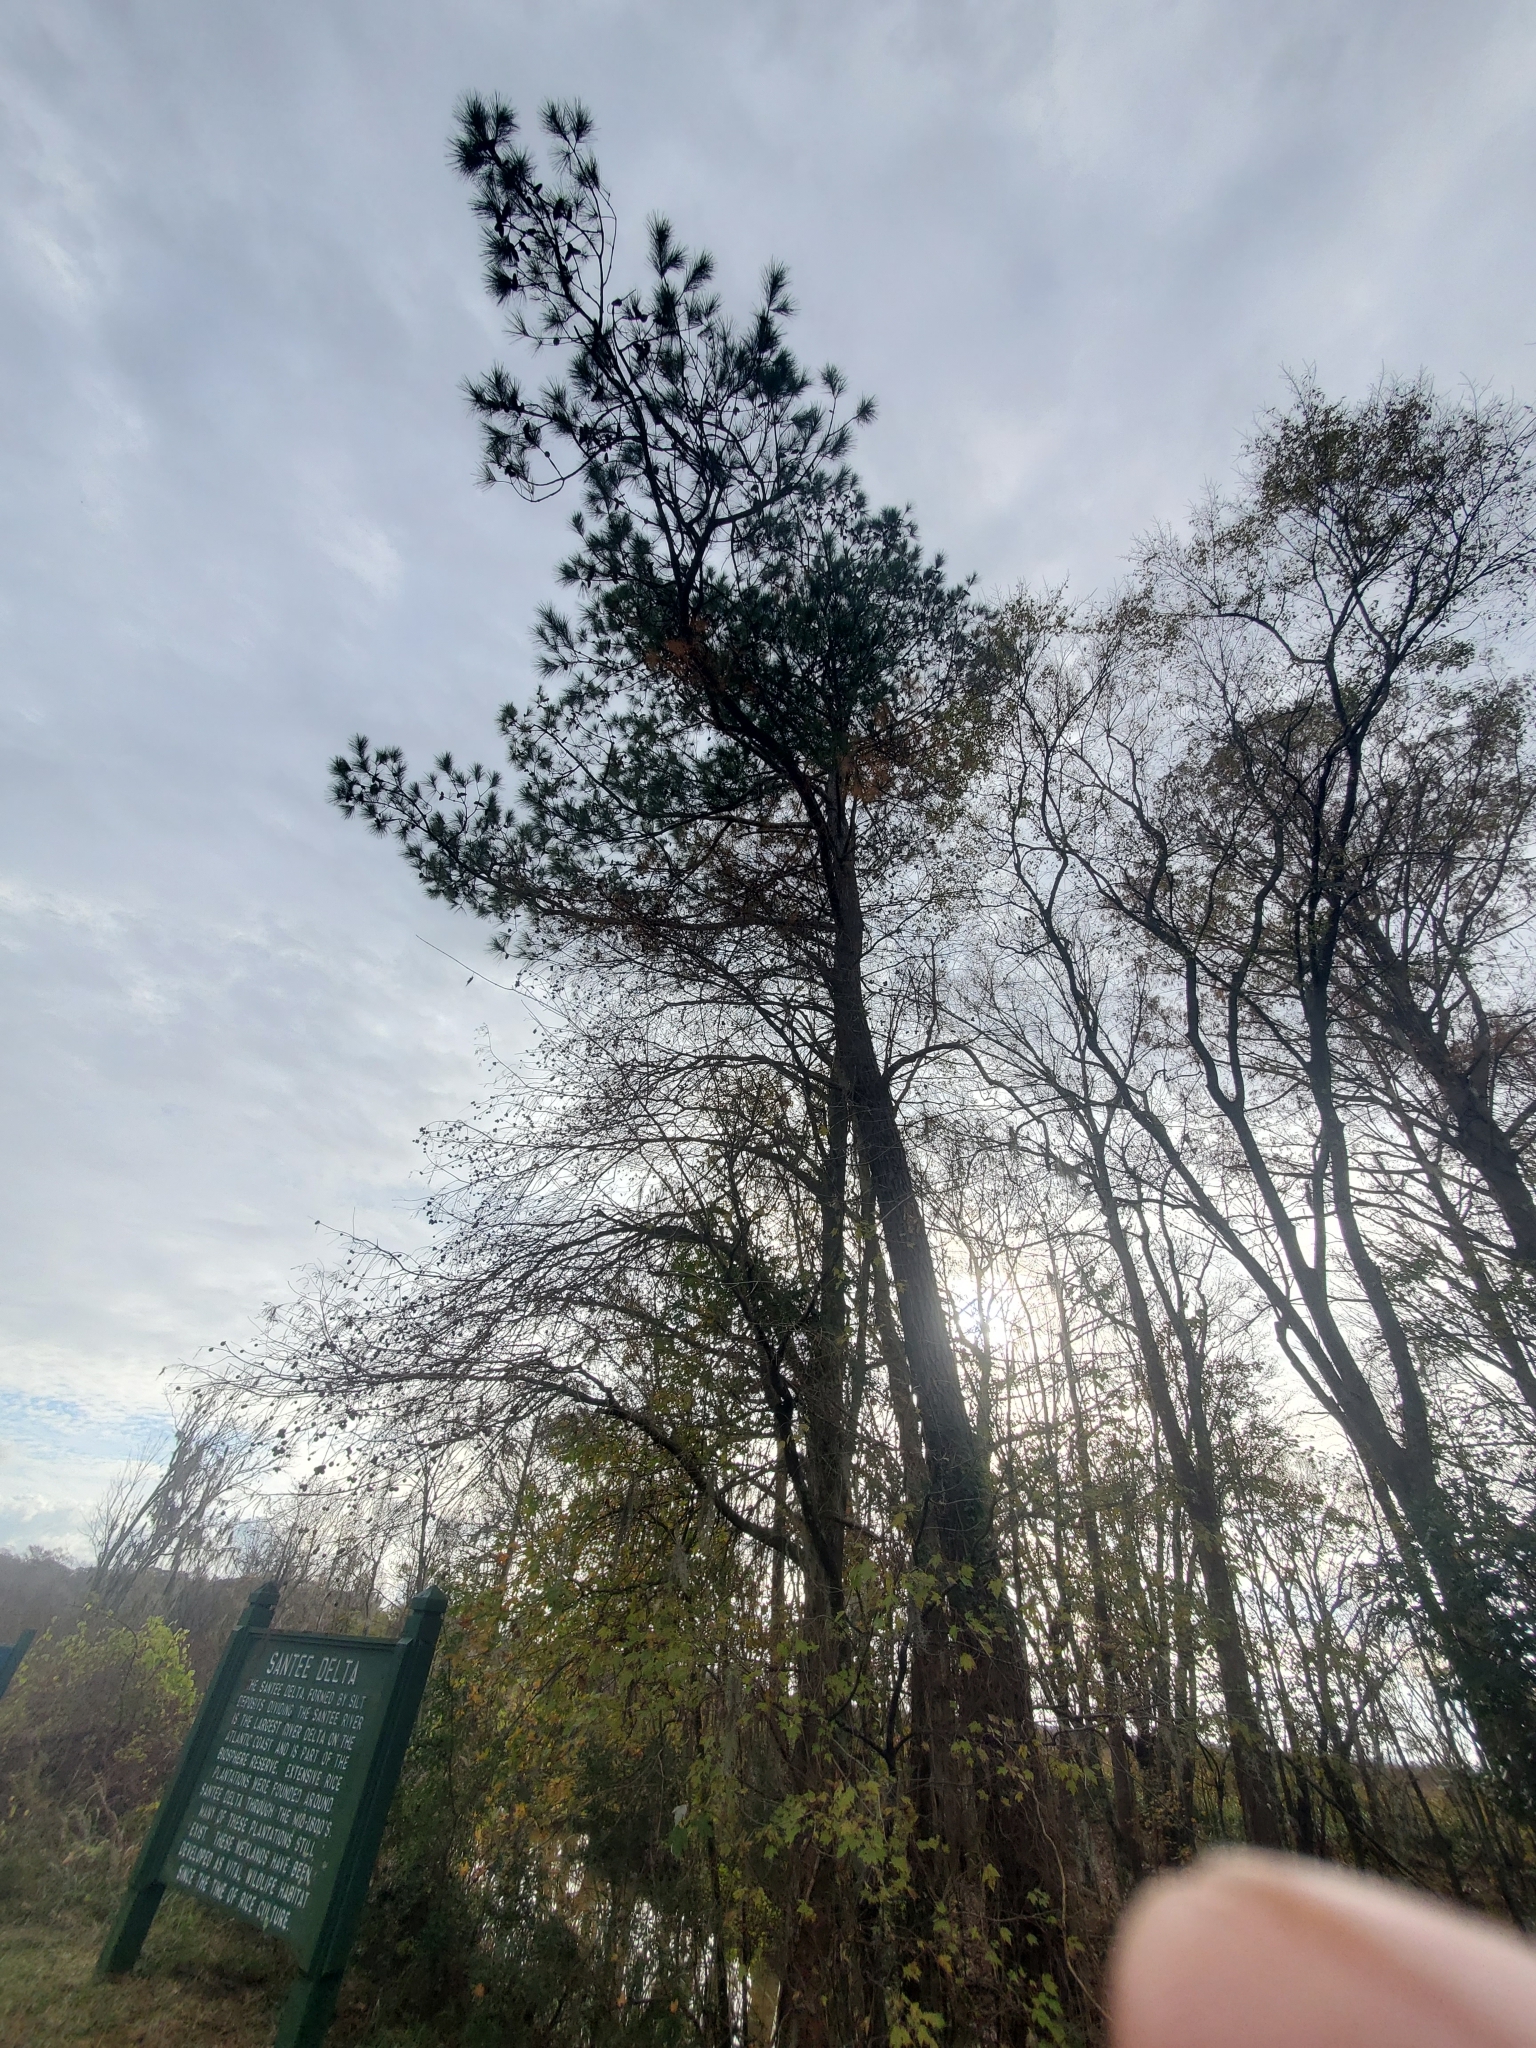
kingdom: Plantae
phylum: Tracheophyta
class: Pinopsida
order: Pinales
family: Pinaceae
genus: Pinus
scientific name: Pinus taeda
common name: Loblolly pine
